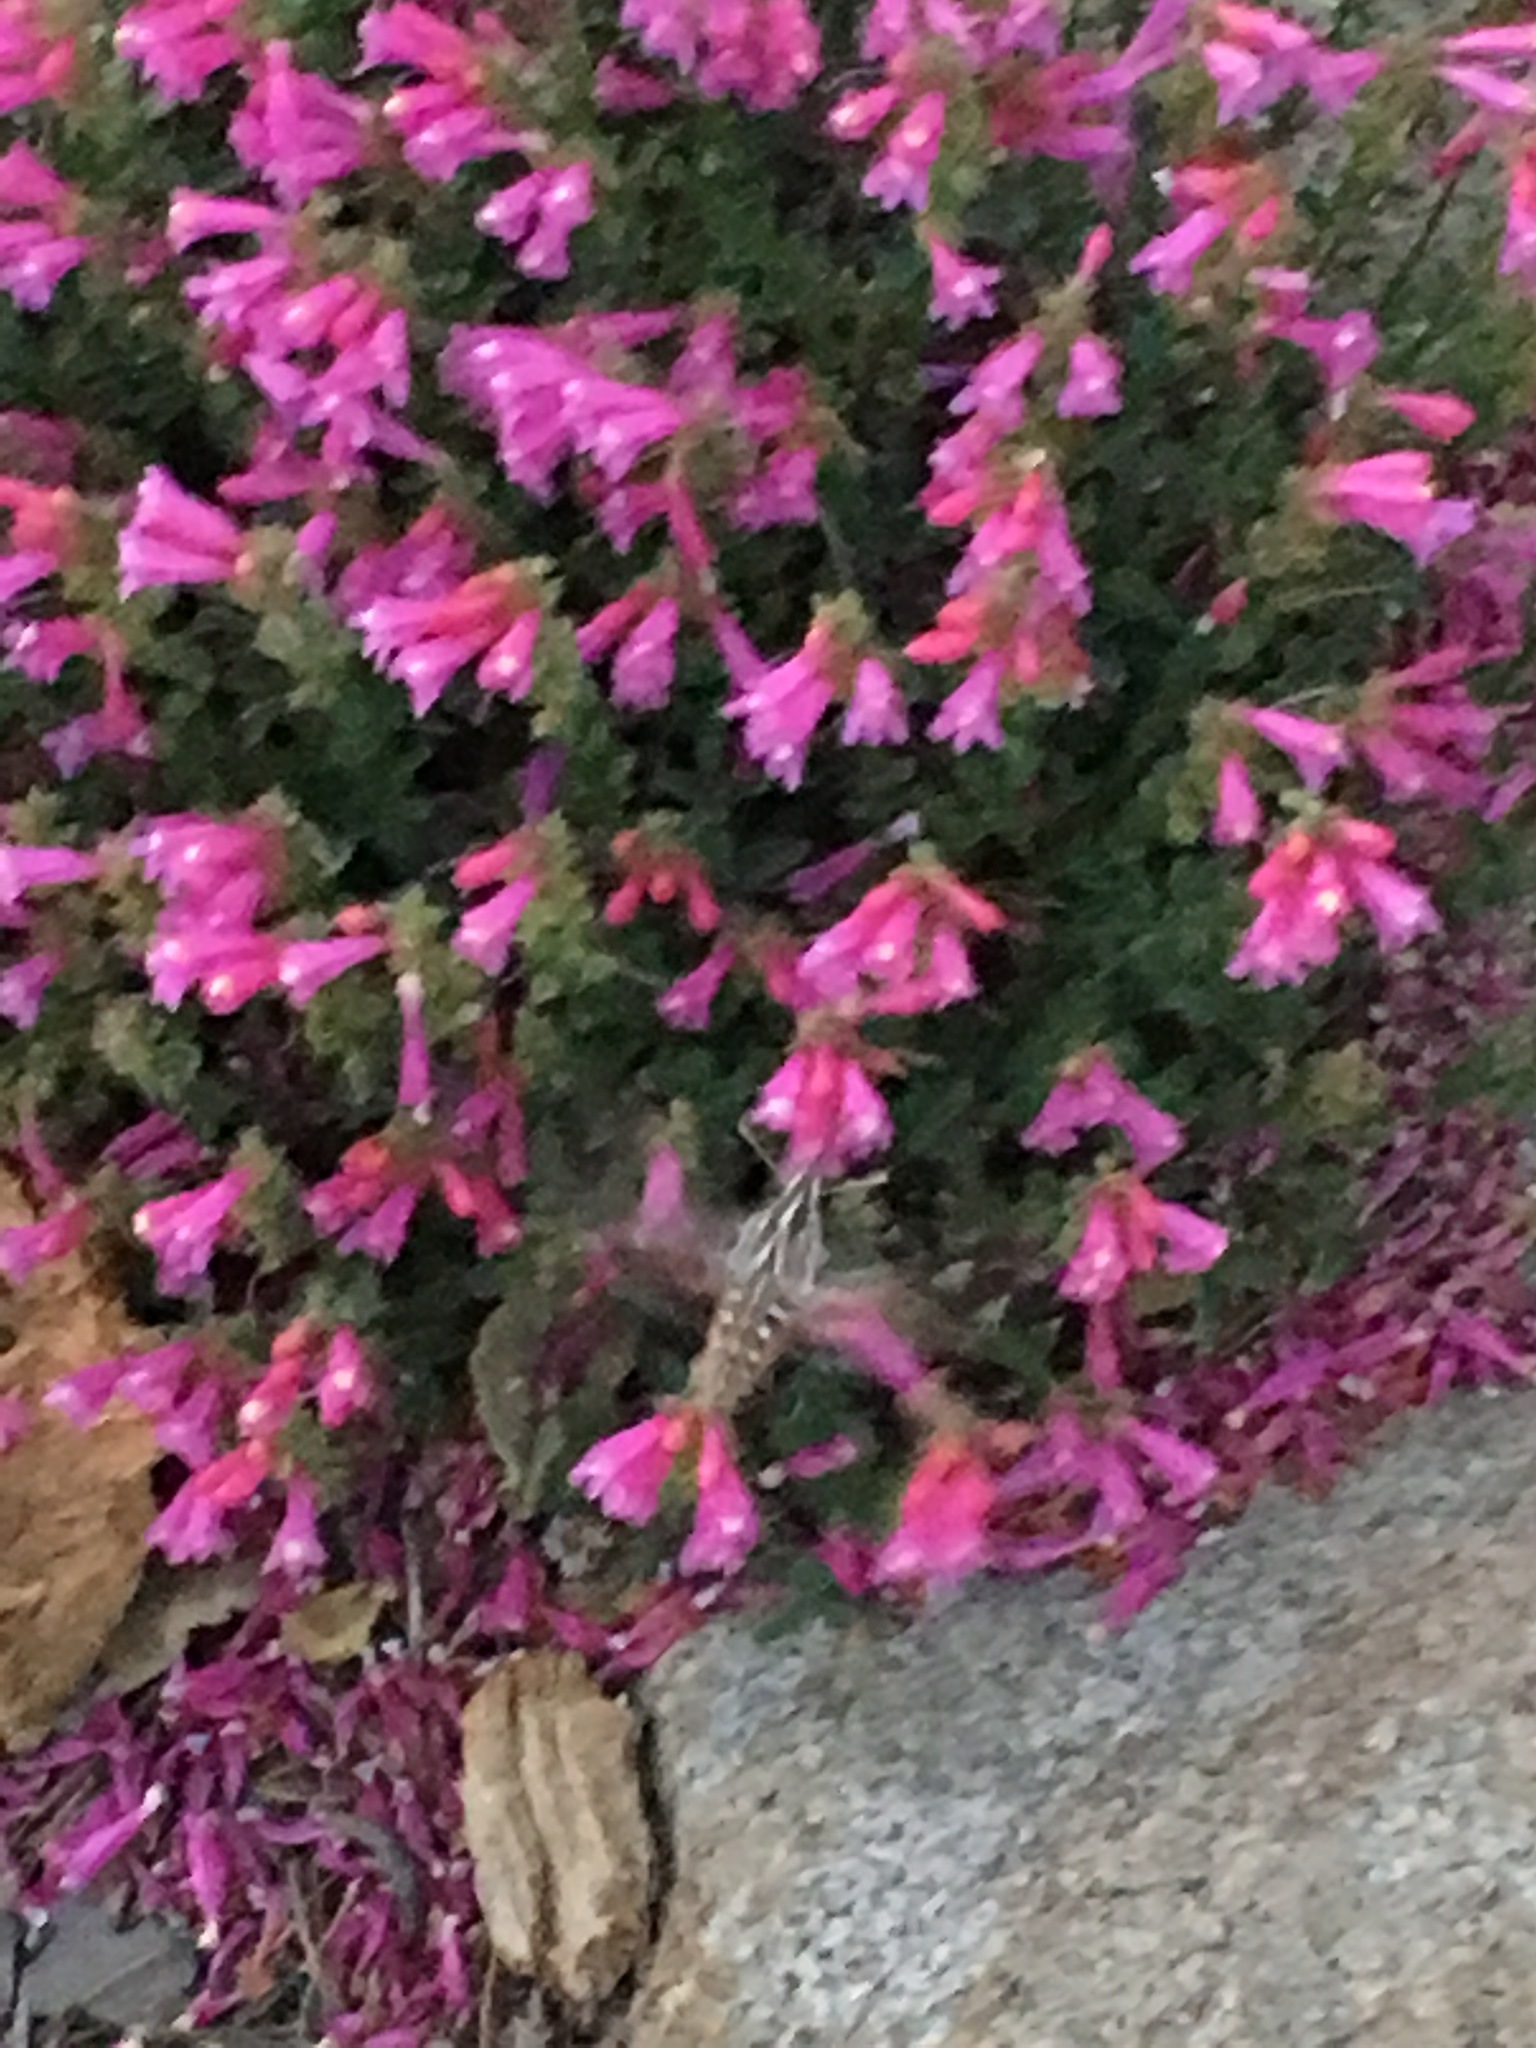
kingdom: Plantae
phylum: Tracheophyta
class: Magnoliopsida
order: Lamiales
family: Plantaginaceae
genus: Penstemon
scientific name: Penstemon newberryi
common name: Mountain-pride
